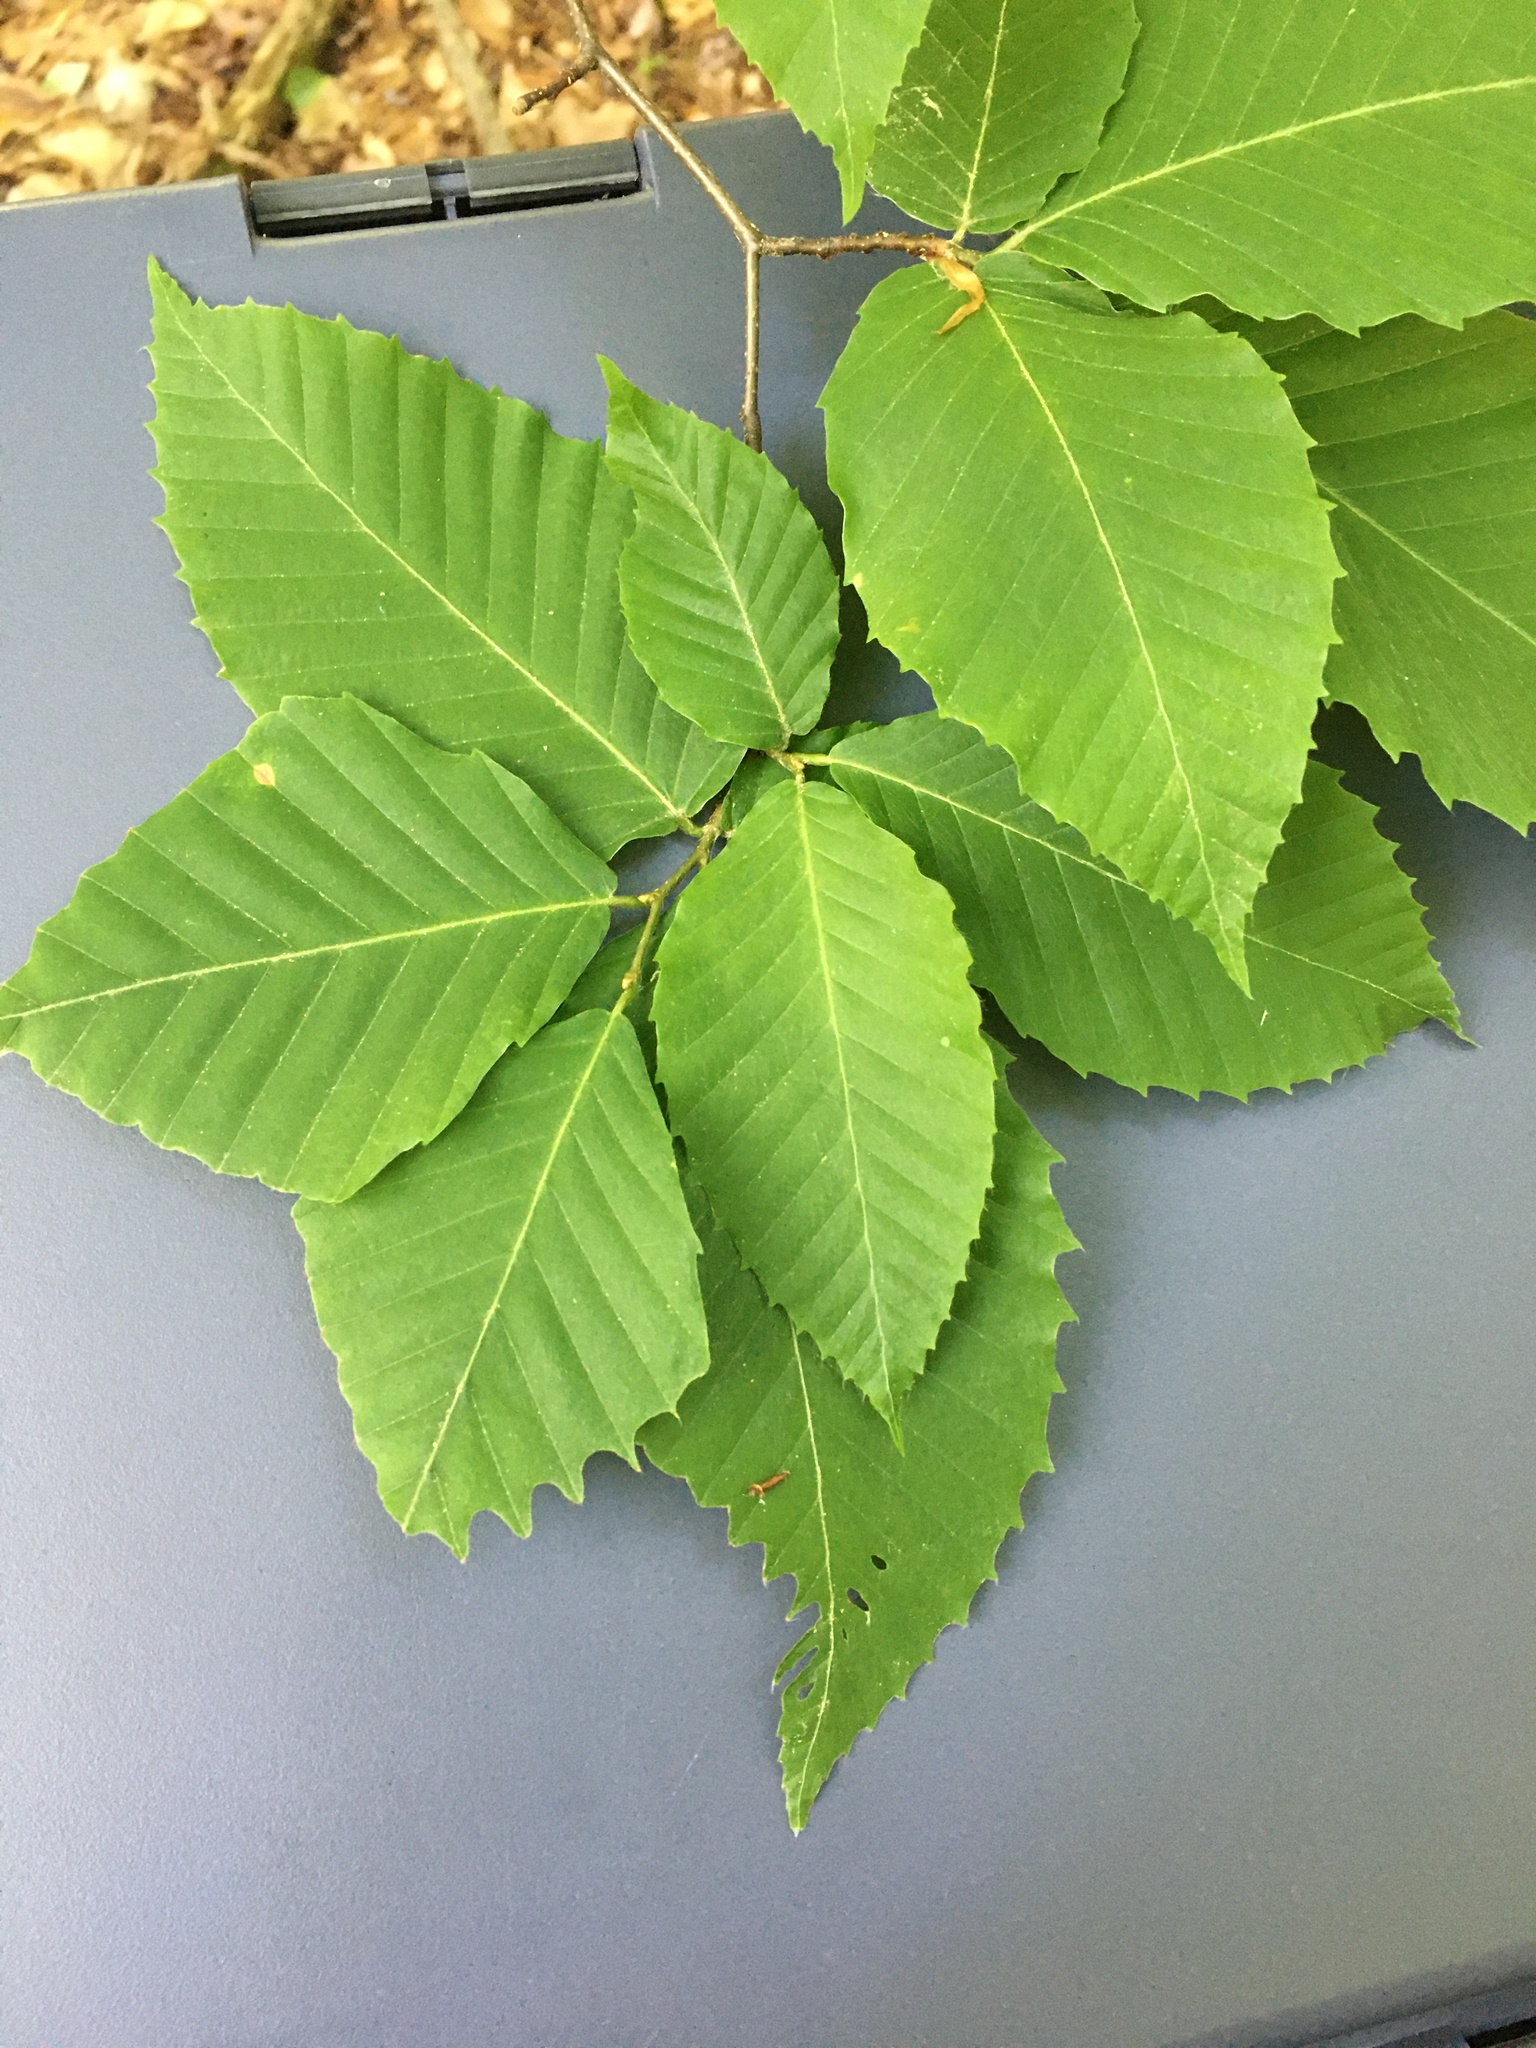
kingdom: Plantae
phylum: Tracheophyta
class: Magnoliopsida
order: Fagales
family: Fagaceae
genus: Fagus
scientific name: Fagus grandifolia
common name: American beech
